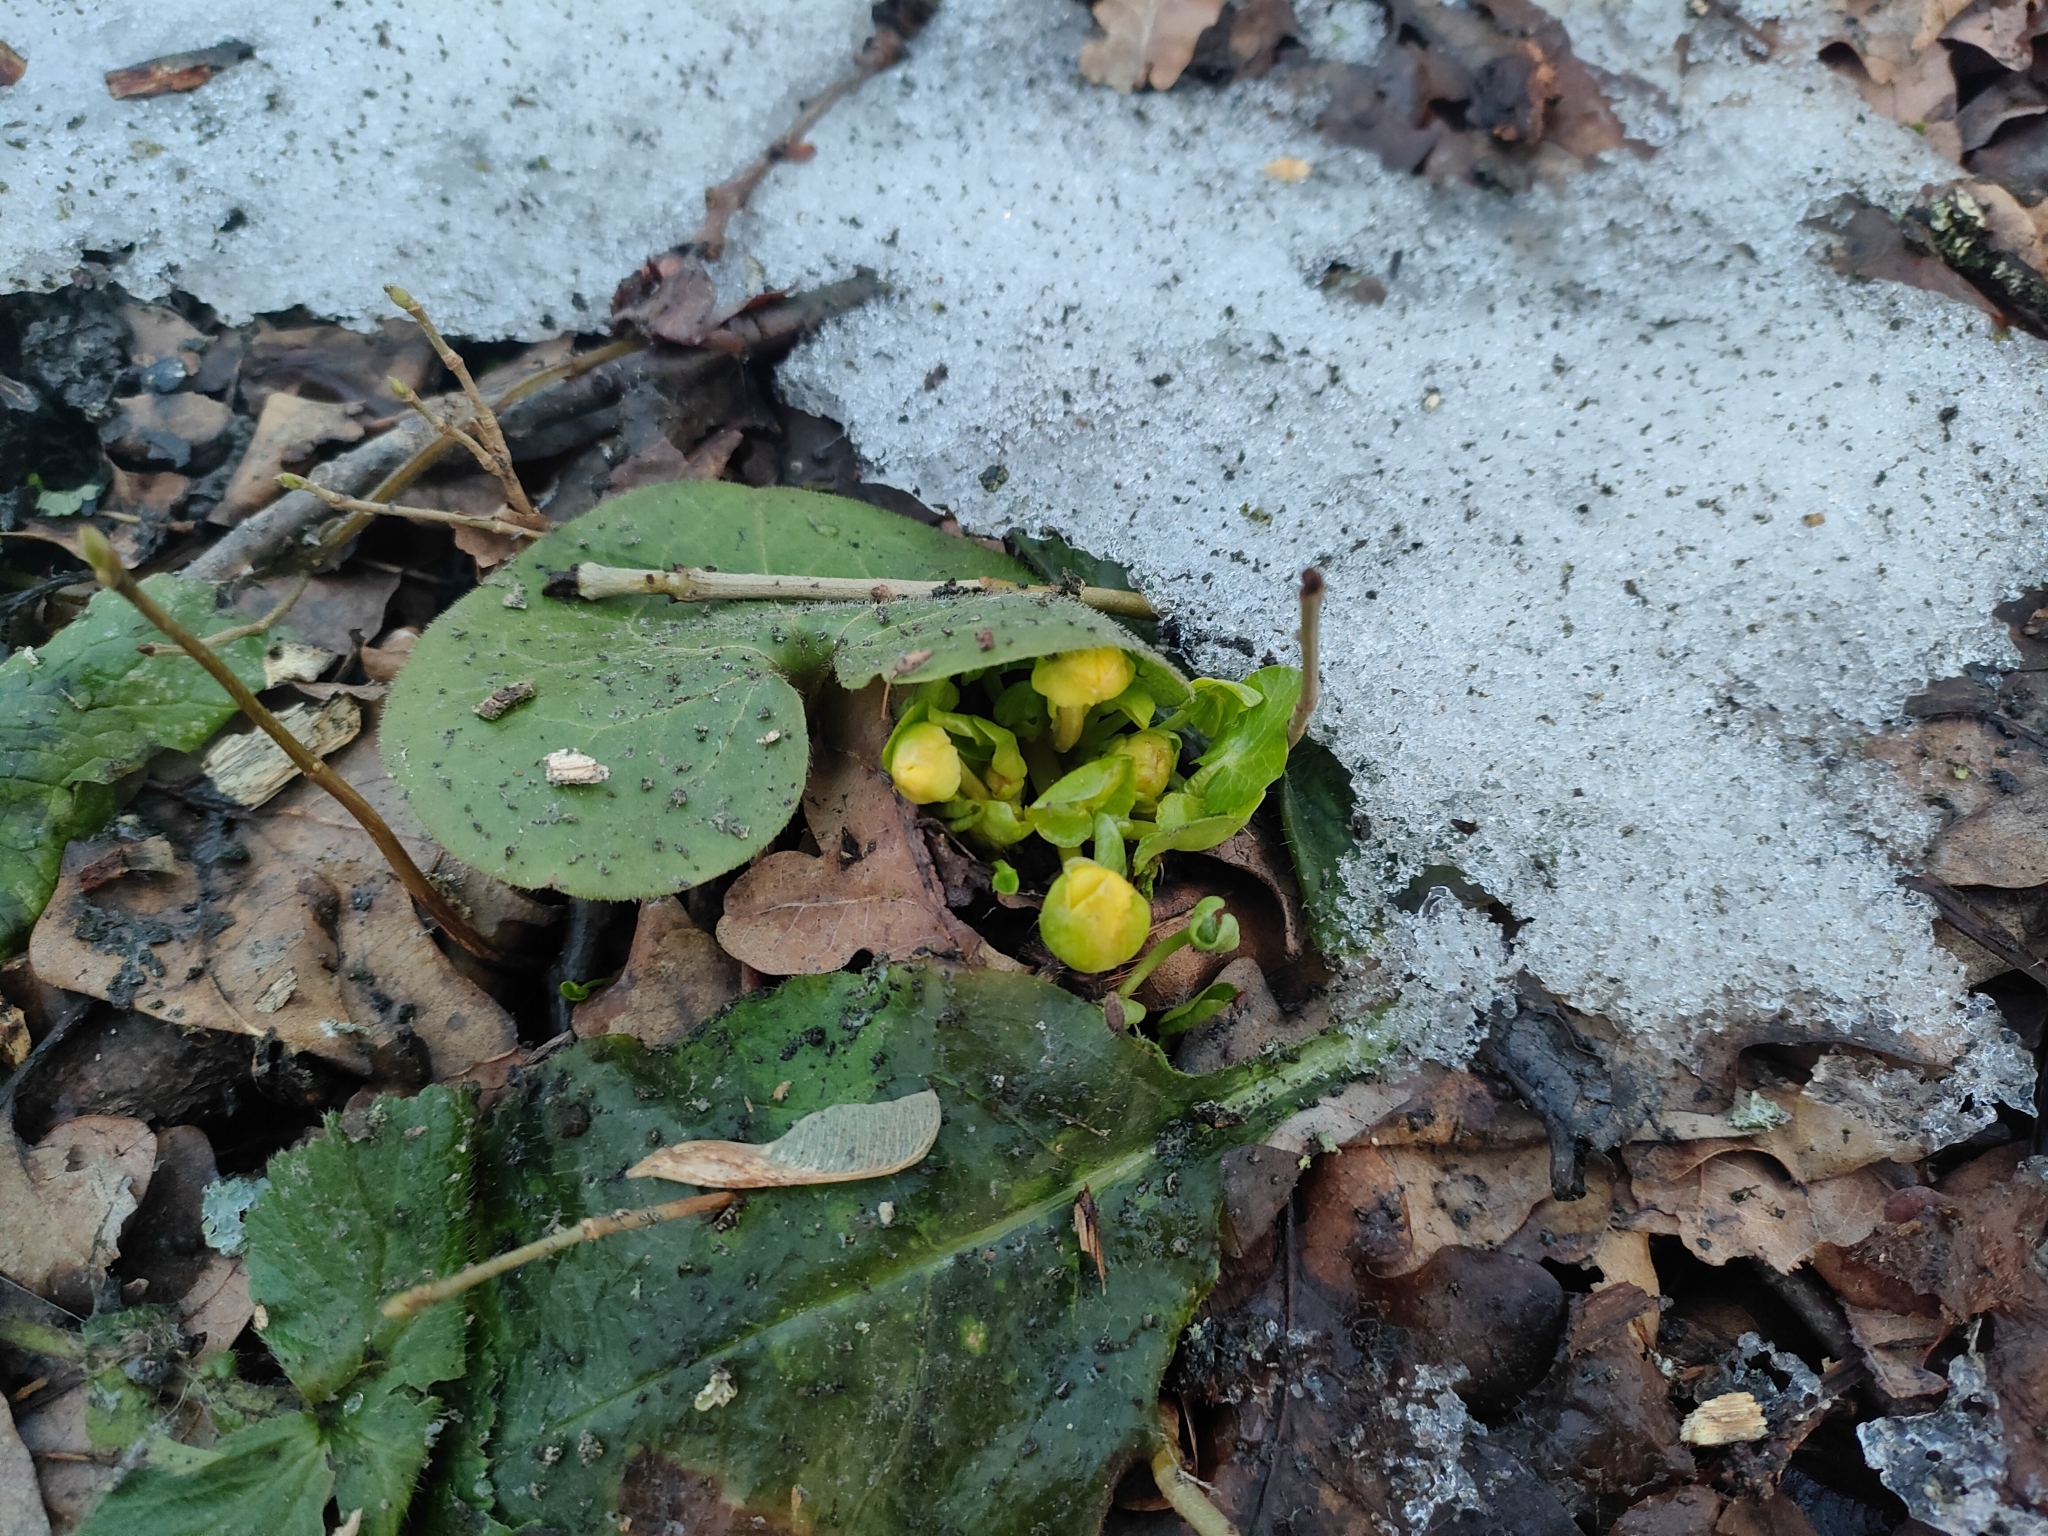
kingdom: Plantae
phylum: Tracheophyta
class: Magnoliopsida
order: Ranunculales
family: Ranunculaceae
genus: Ficaria
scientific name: Ficaria verna
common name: Lesser celandine
